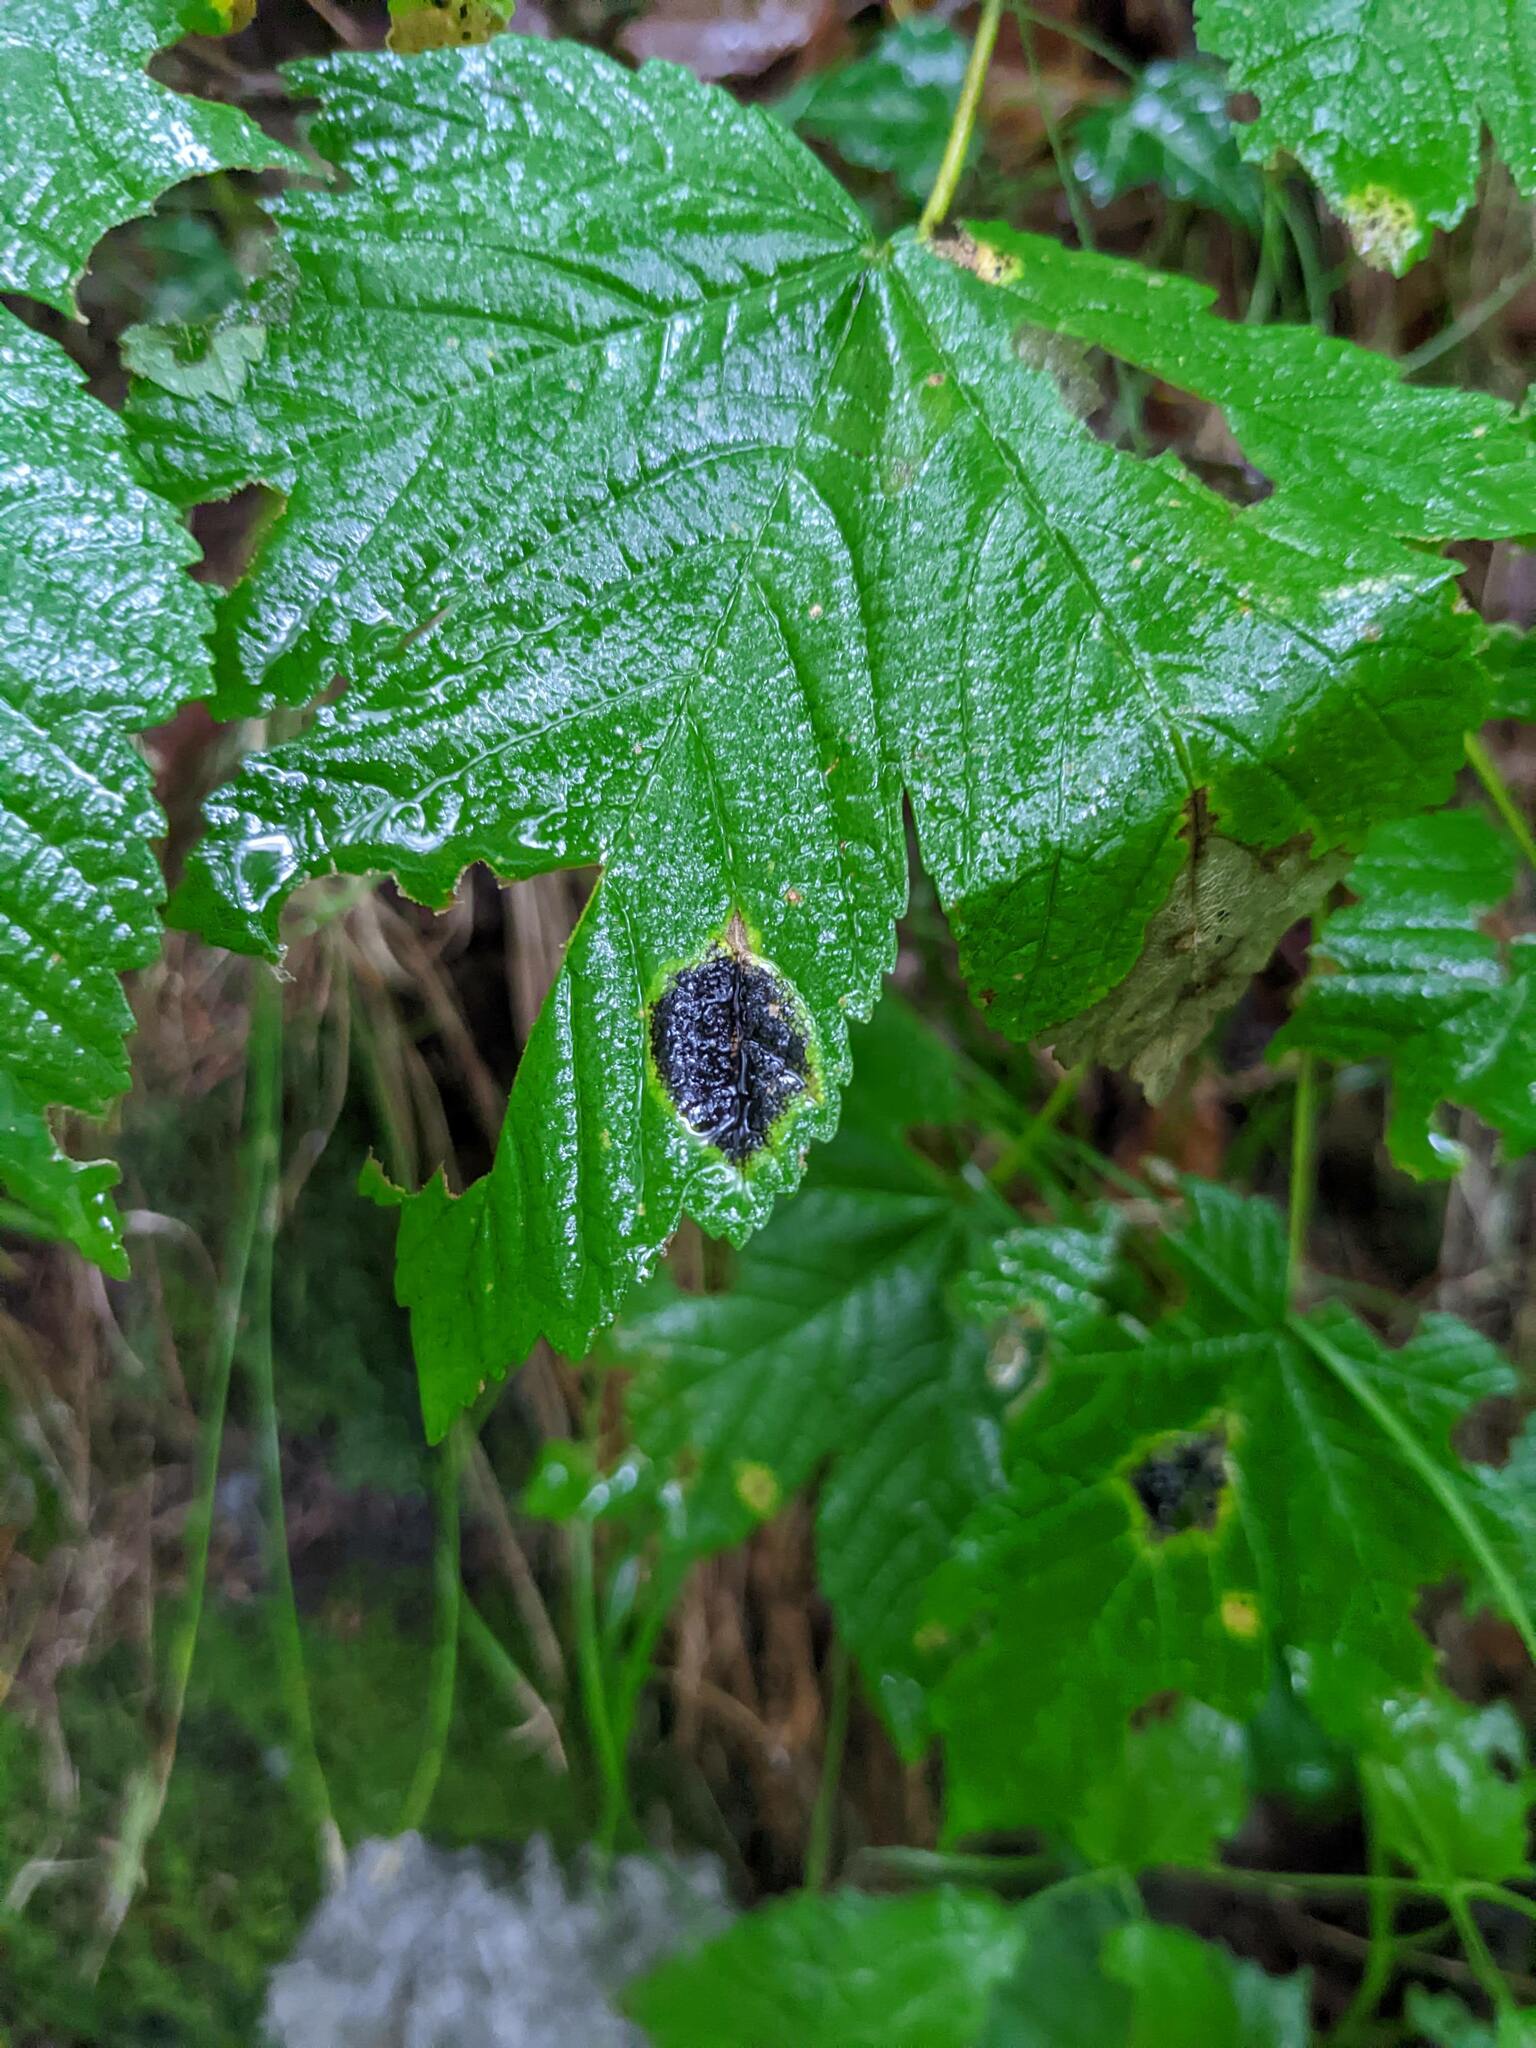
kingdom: Fungi
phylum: Ascomycota
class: Leotiomycetes
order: Rhytismatales
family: Rhytismataceae
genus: Rhytisma
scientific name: Rhytisma acerinum
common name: European tar spot
